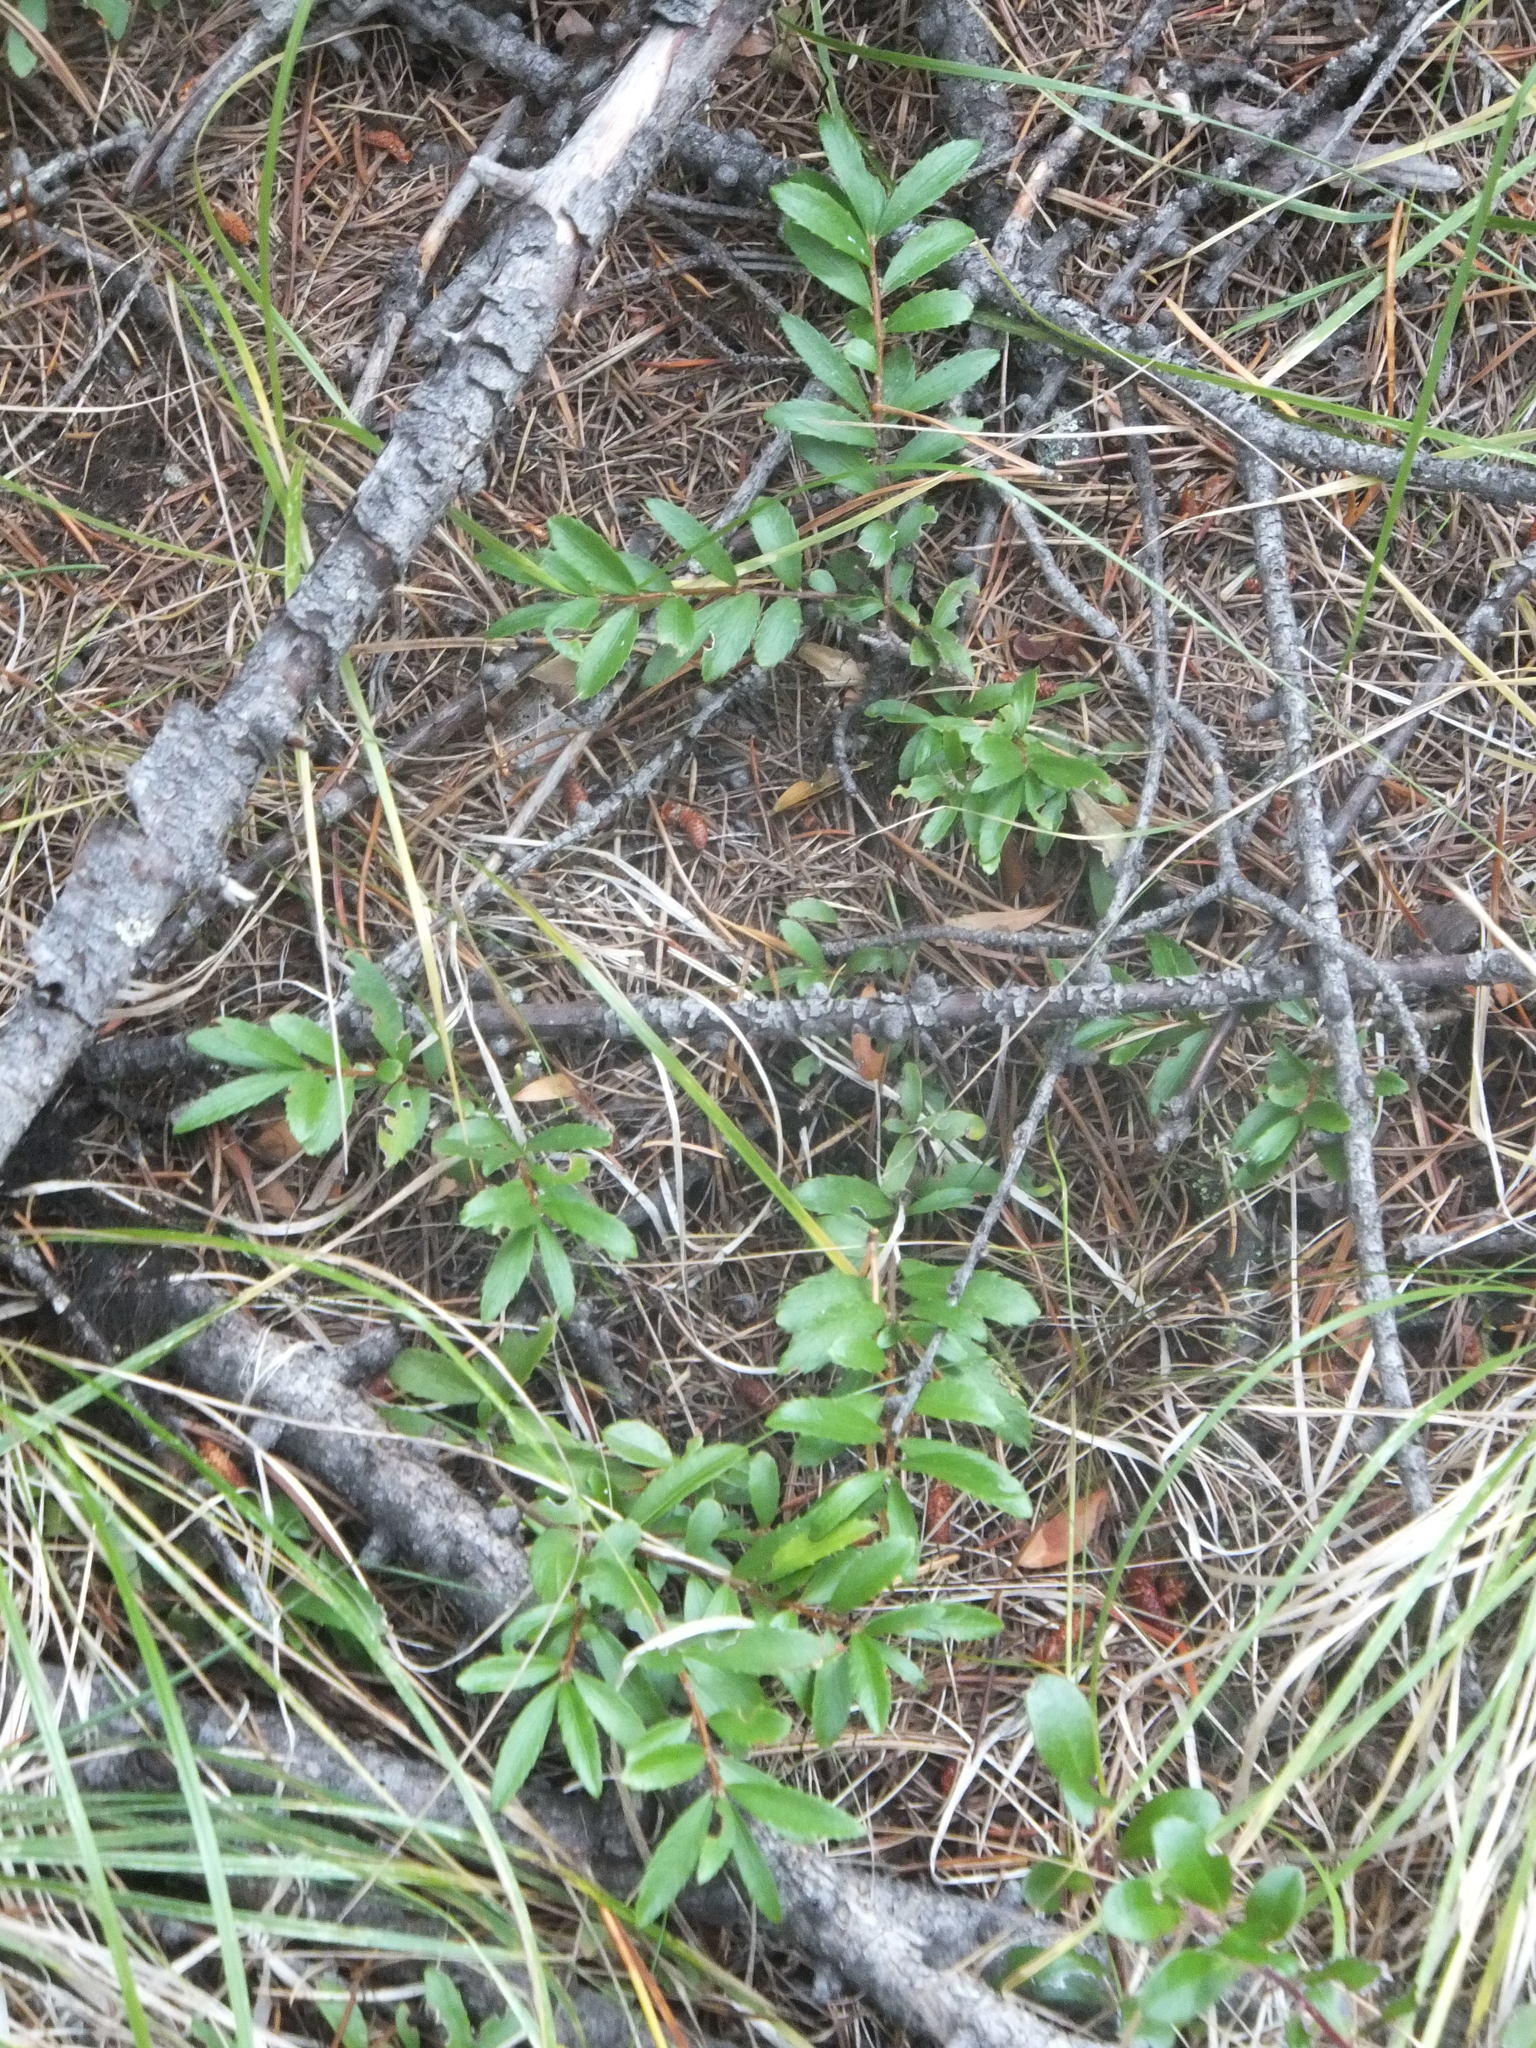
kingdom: Plantae
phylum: Tracheophyta
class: Magnoliopsida
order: Celastrales
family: Celastraceae
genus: Paxistima
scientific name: Paxistima myrsinites
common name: Mountain-lover
